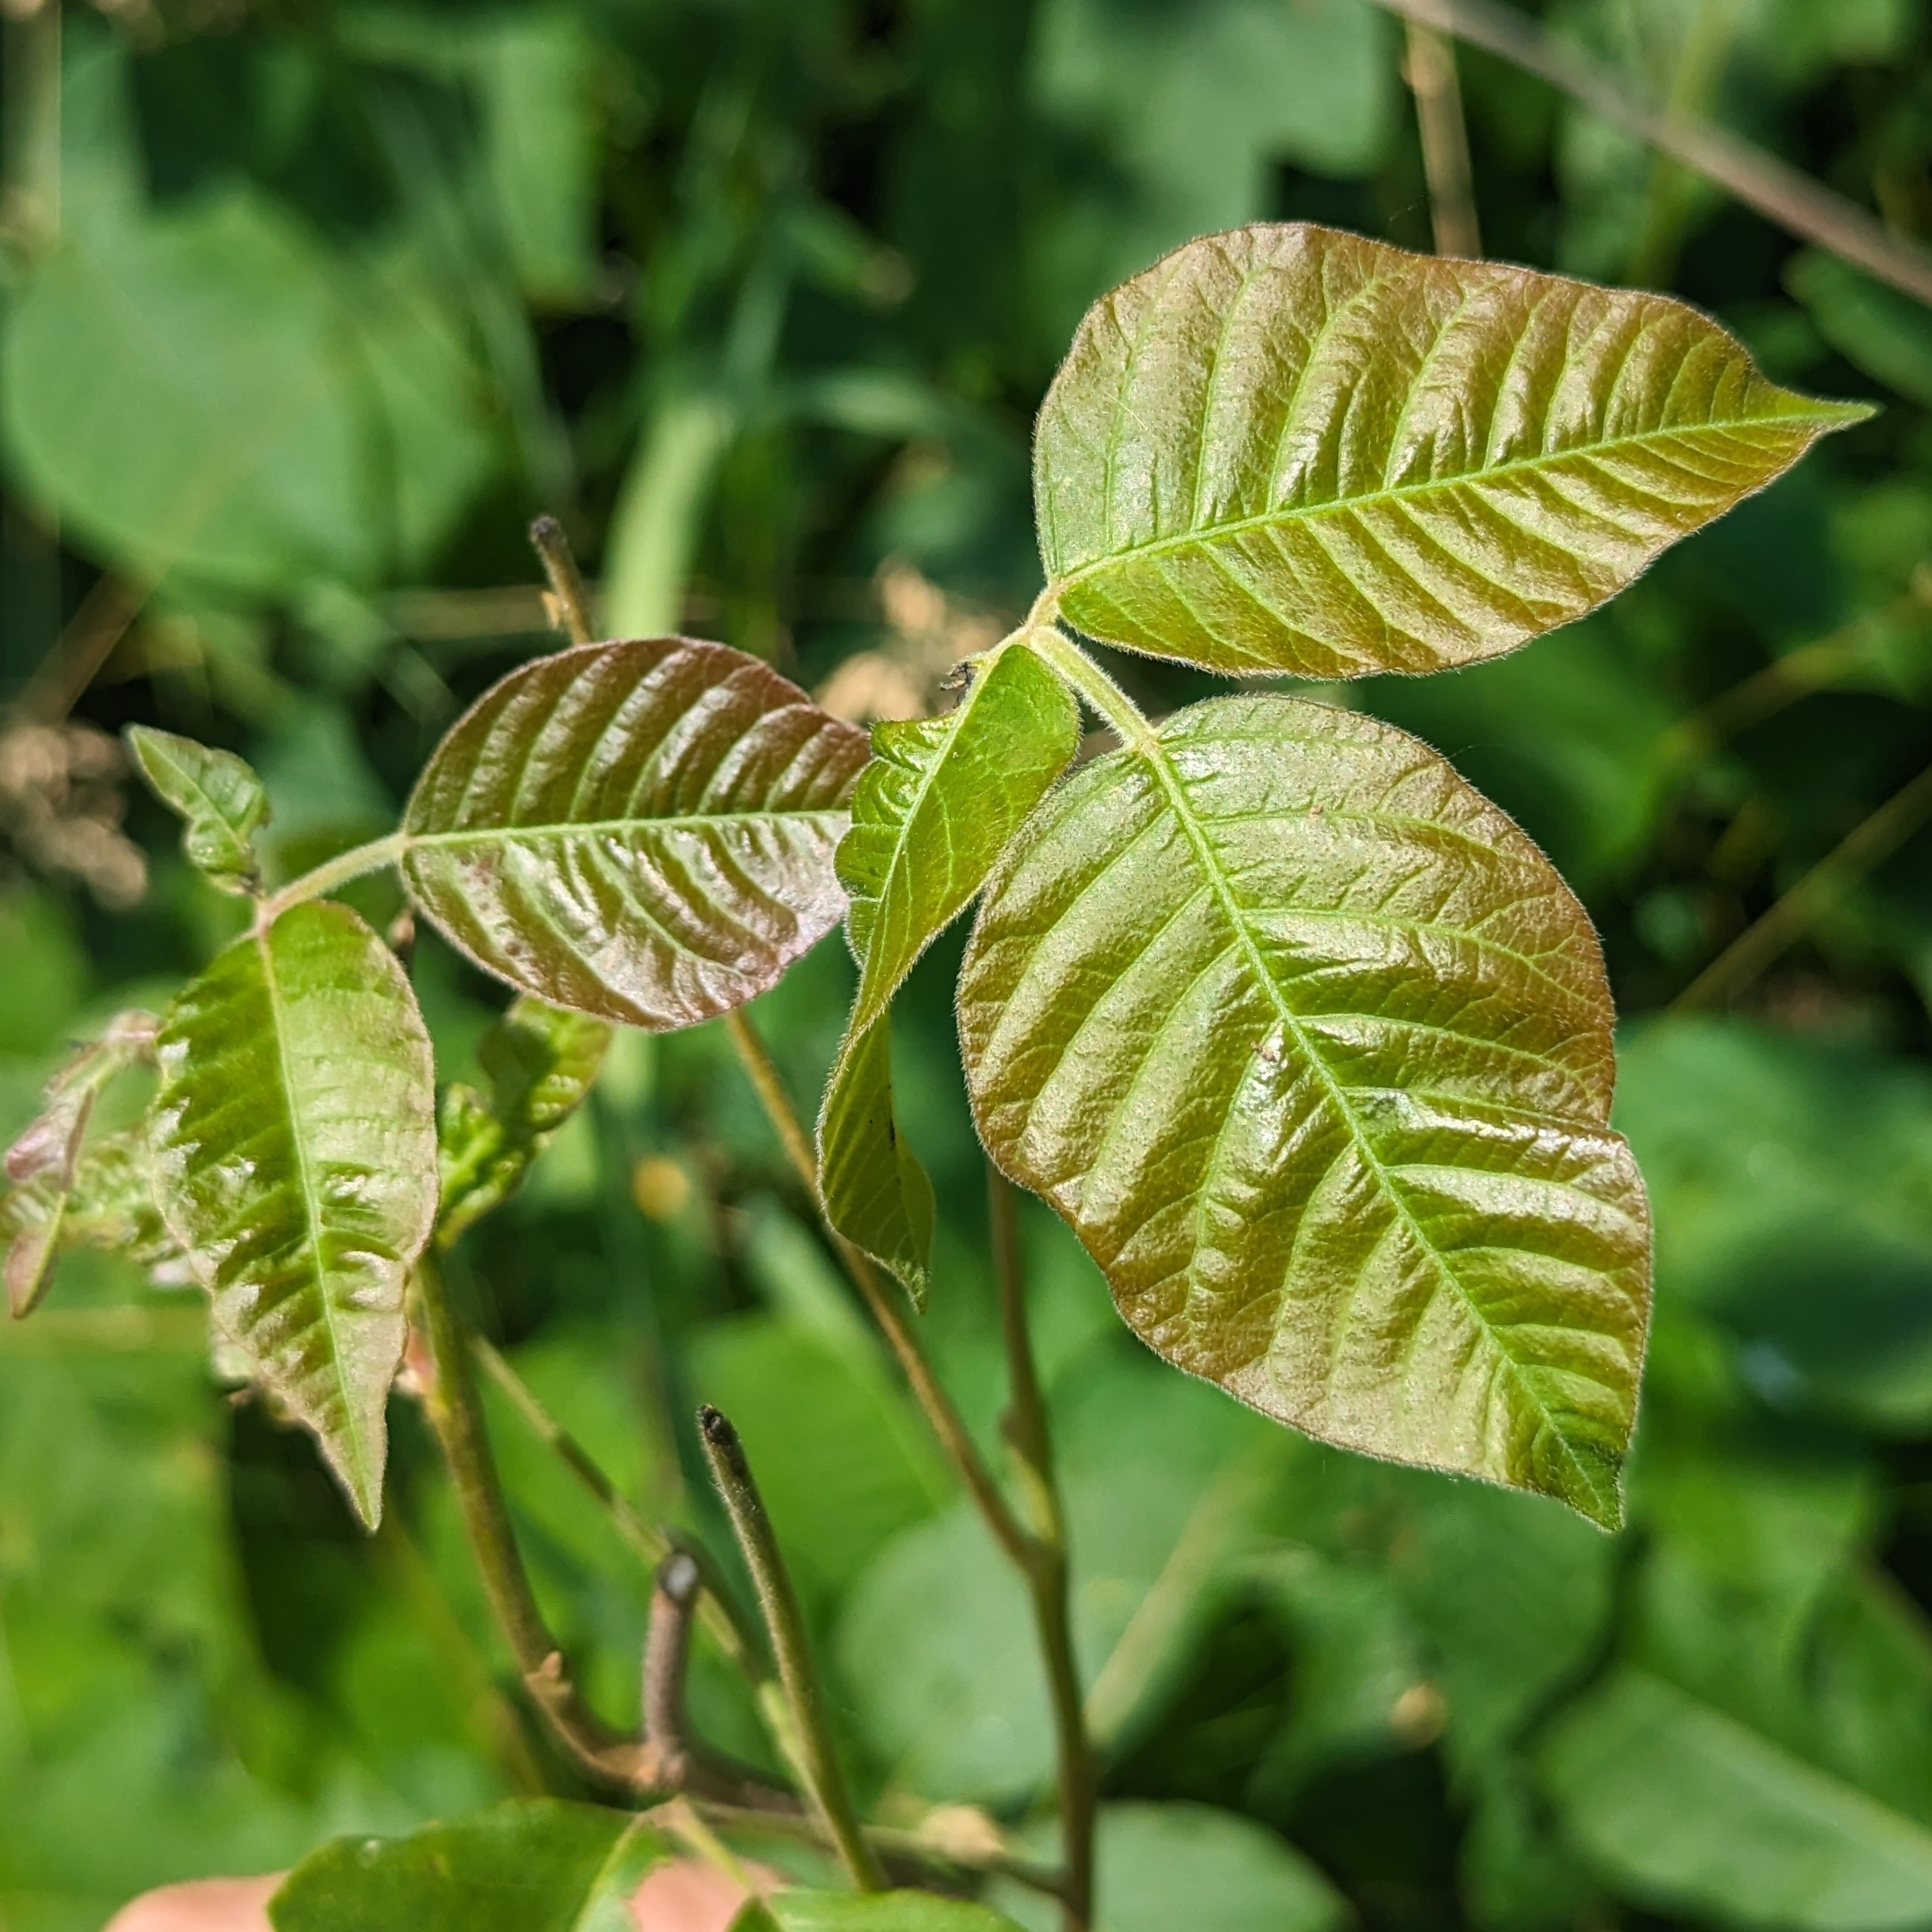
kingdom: Plantae
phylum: Tracheophyta
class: Magnoliopsida
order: Sapindales
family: Anacardiaceae
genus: Toxicodendron
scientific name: Toxicodendron radicans
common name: Poison ivy
